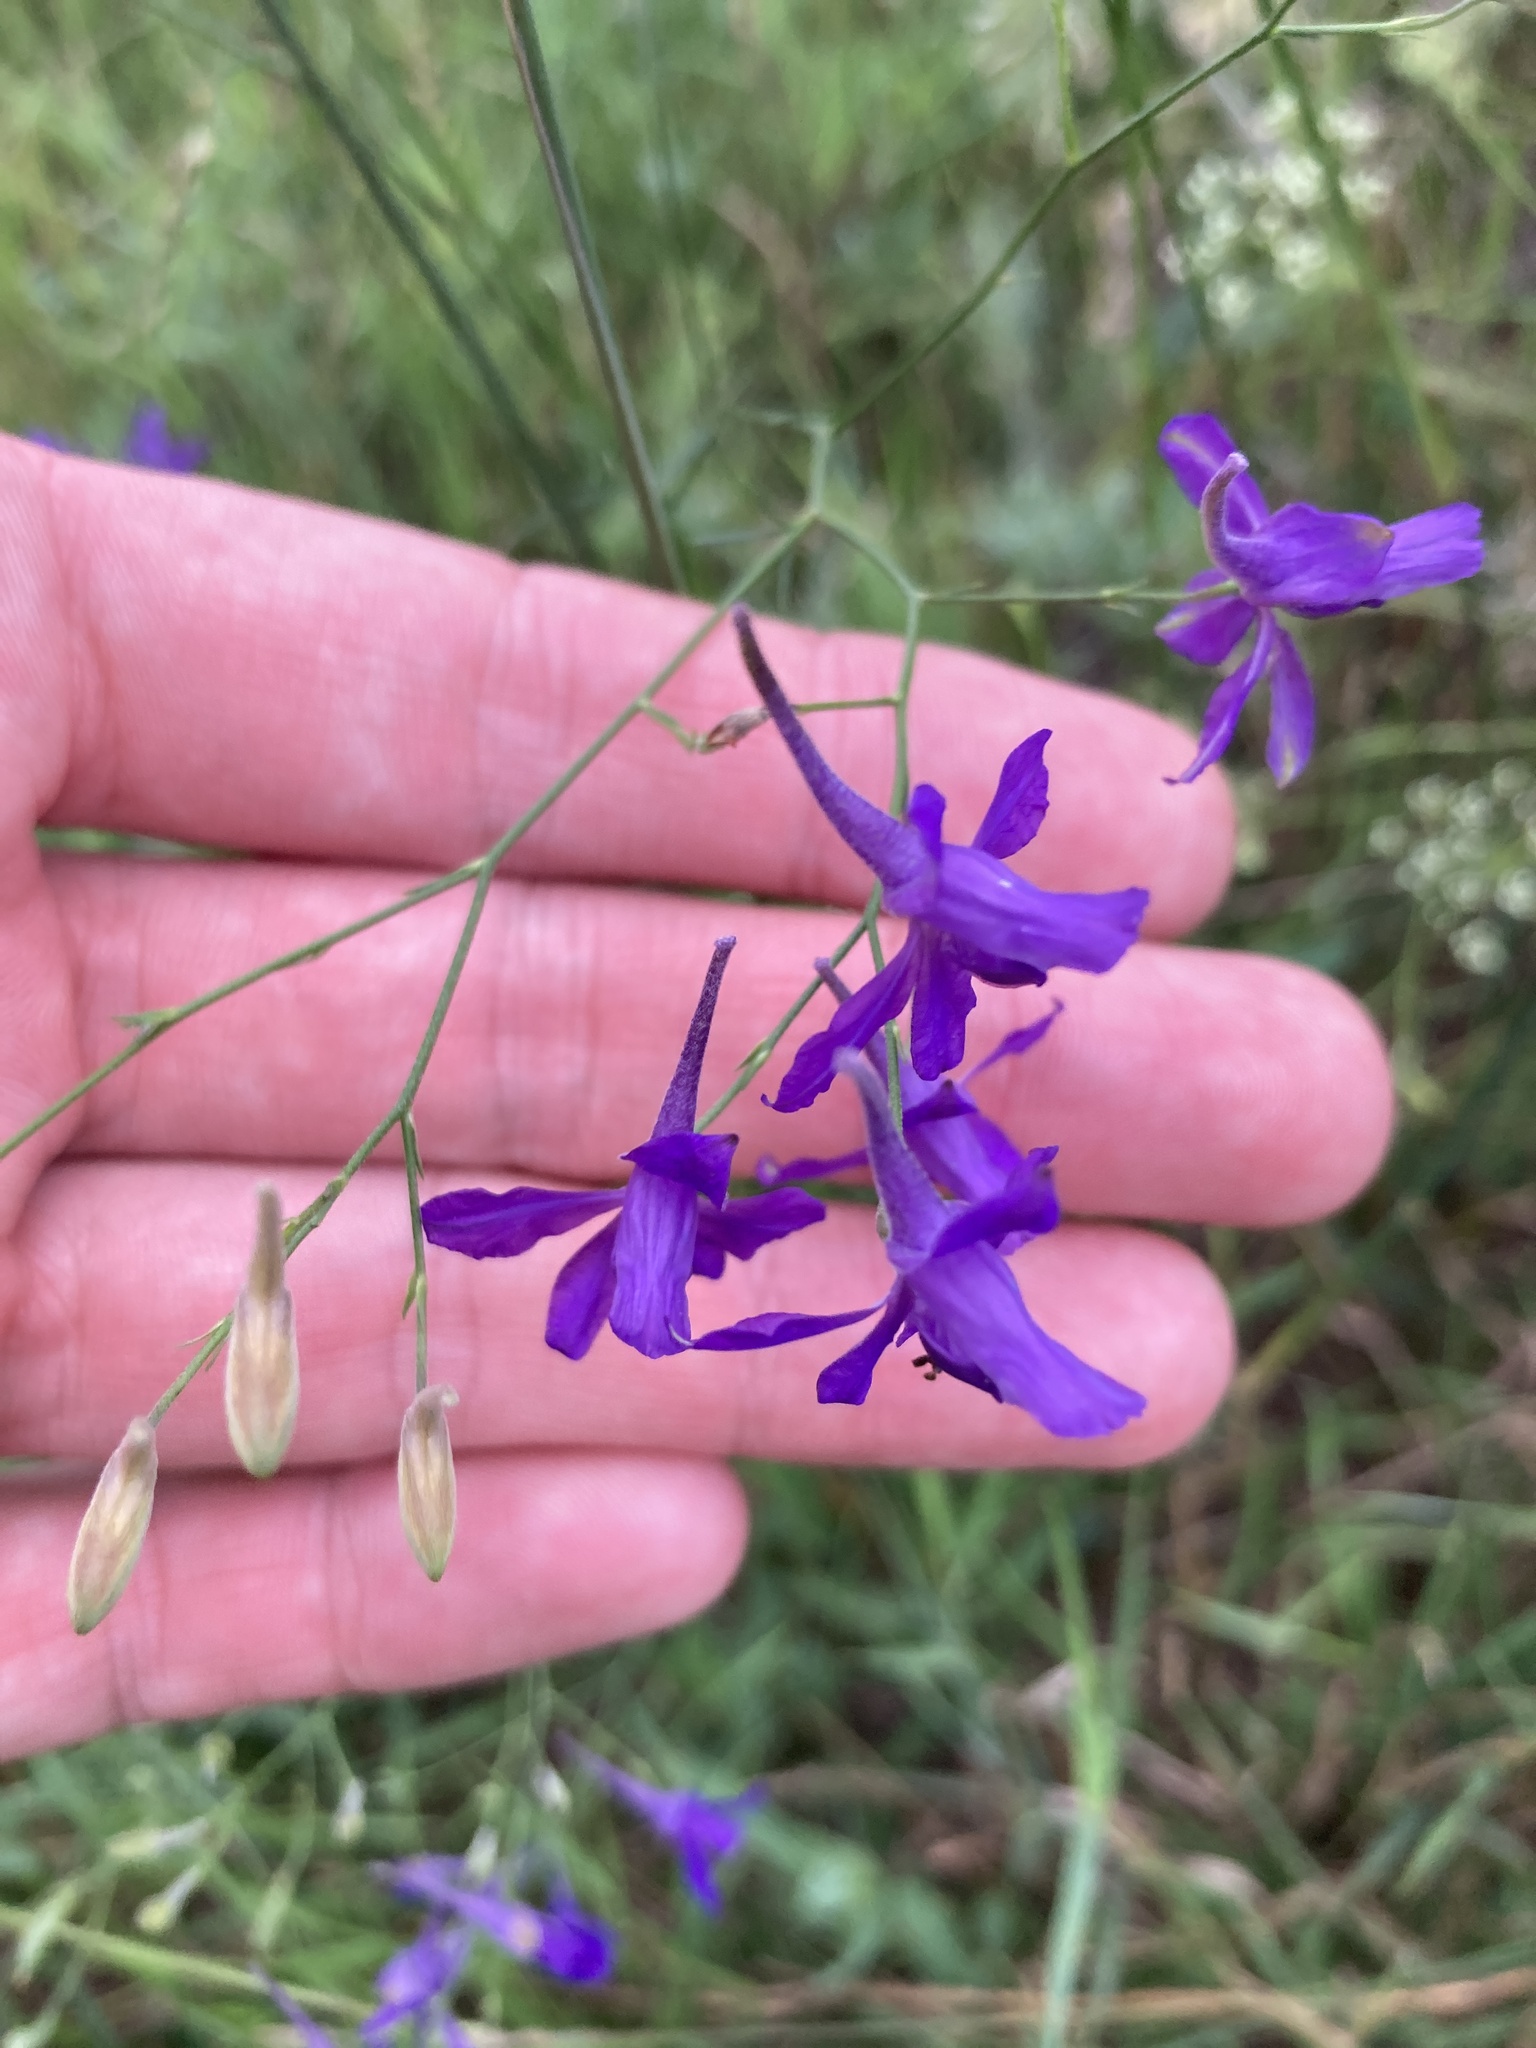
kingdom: Plantae
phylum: Tracheophyta
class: Magnoliopsida
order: Ranunculales
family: Ranunculaceae
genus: Delphinium
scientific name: Delphinium consolida
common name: Branching larkspur
